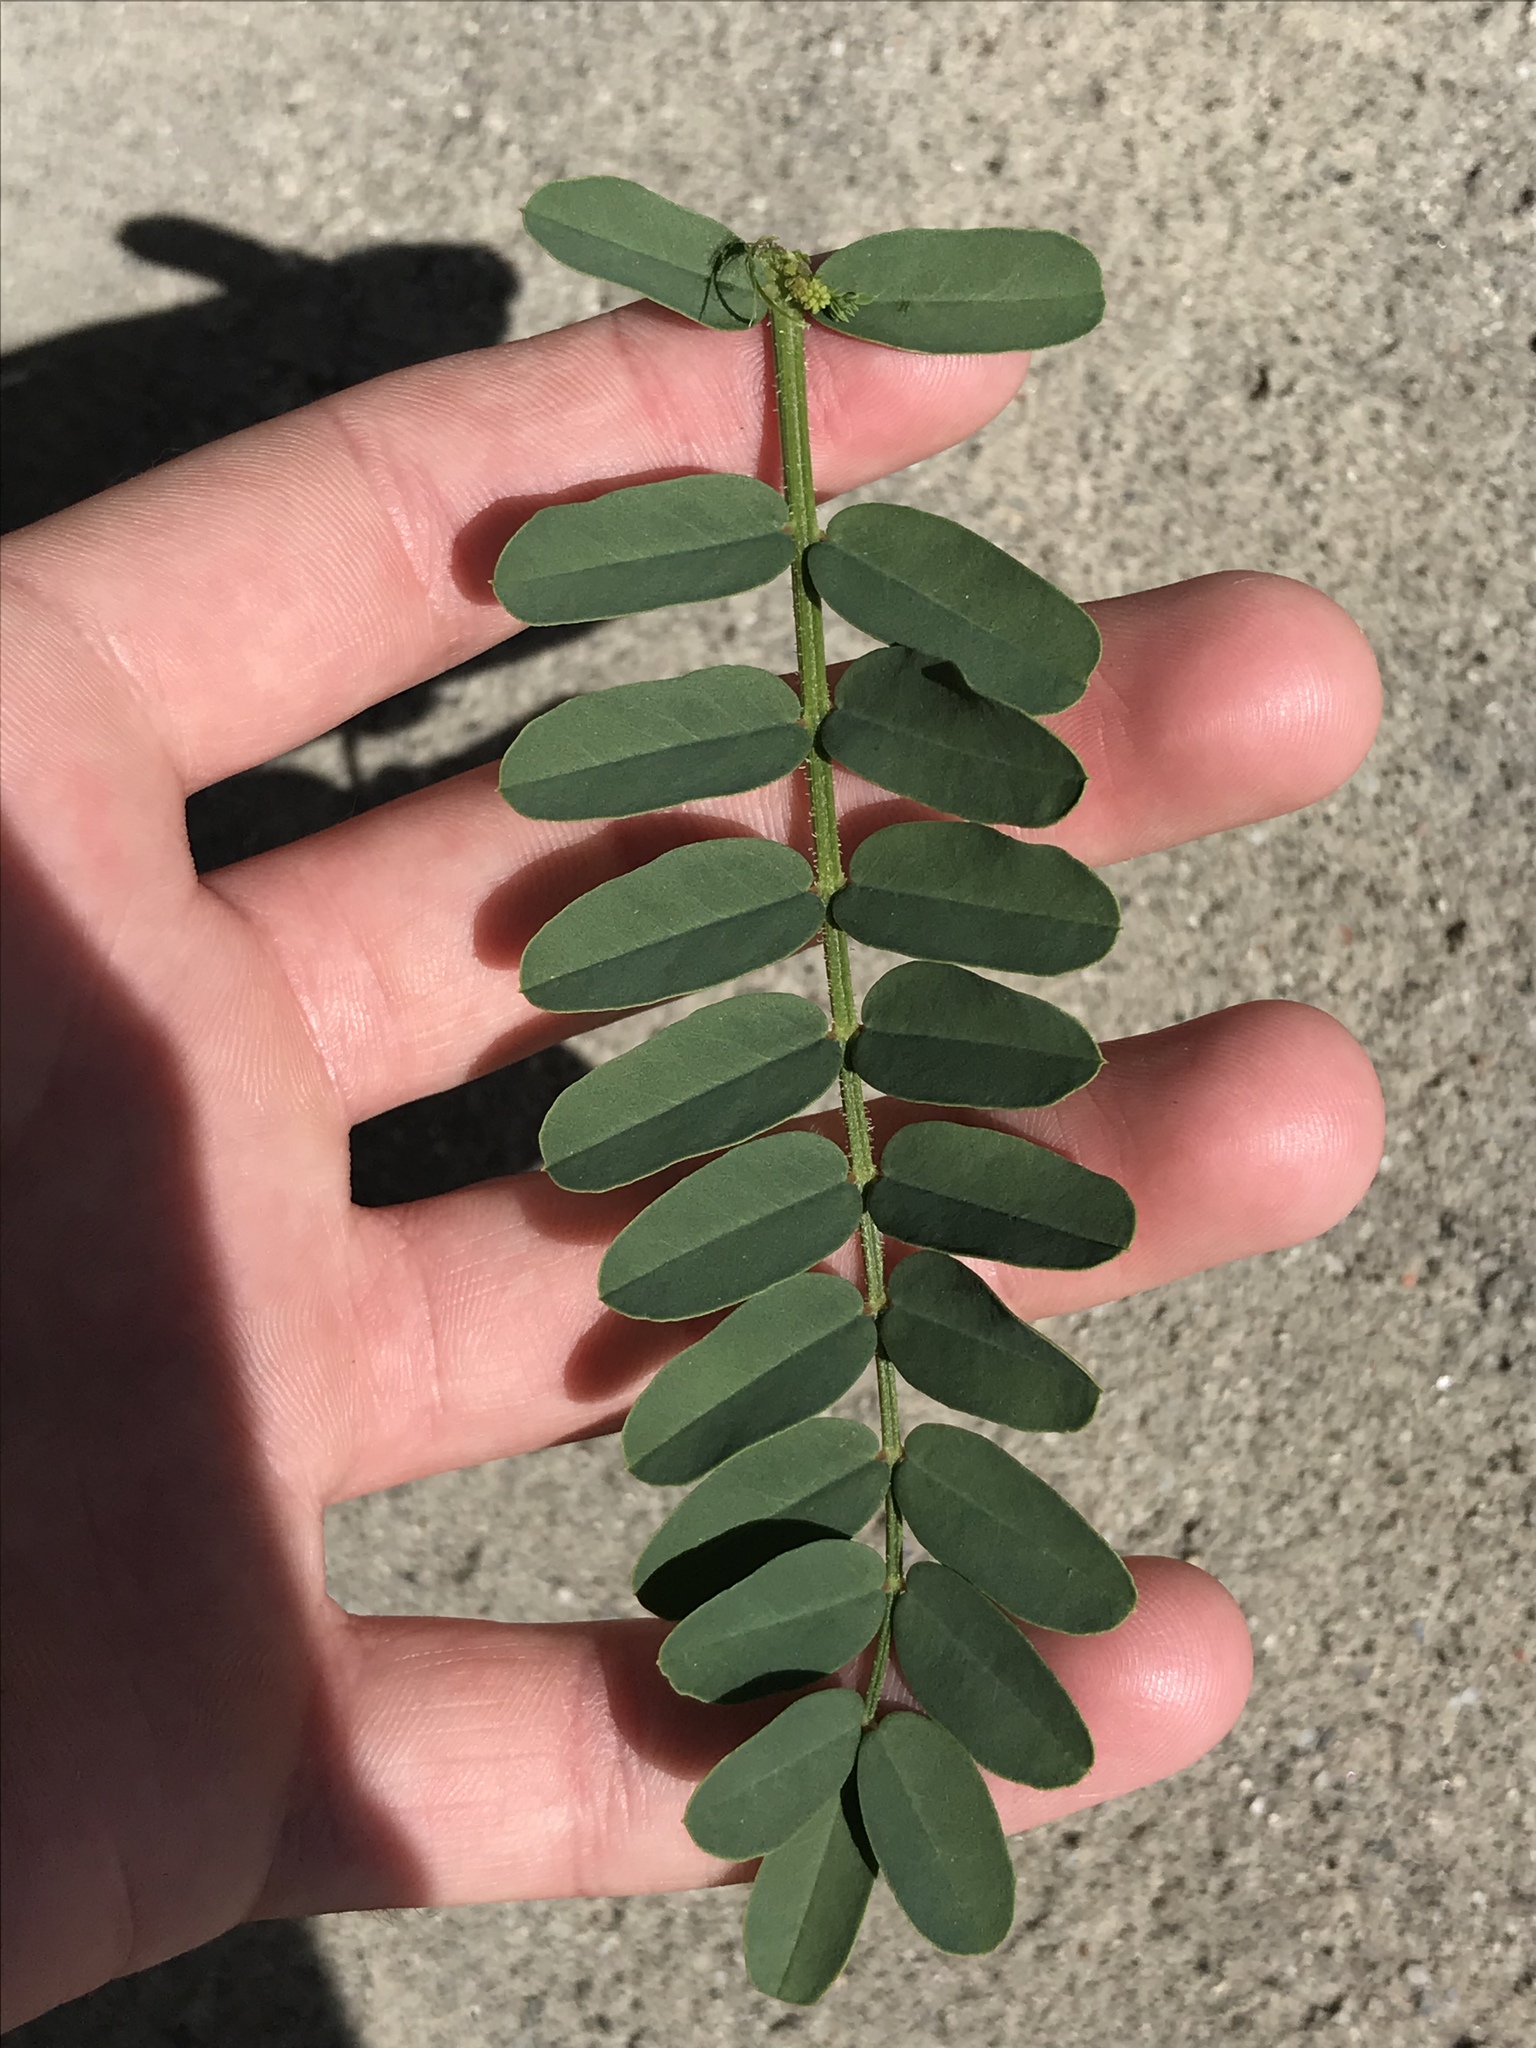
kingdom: Plantae
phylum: Tracheophyta
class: Magnoliopsida
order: Fabales
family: Fabaceae
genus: Coronilla
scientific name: Coronilla varia
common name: Crownvetch
